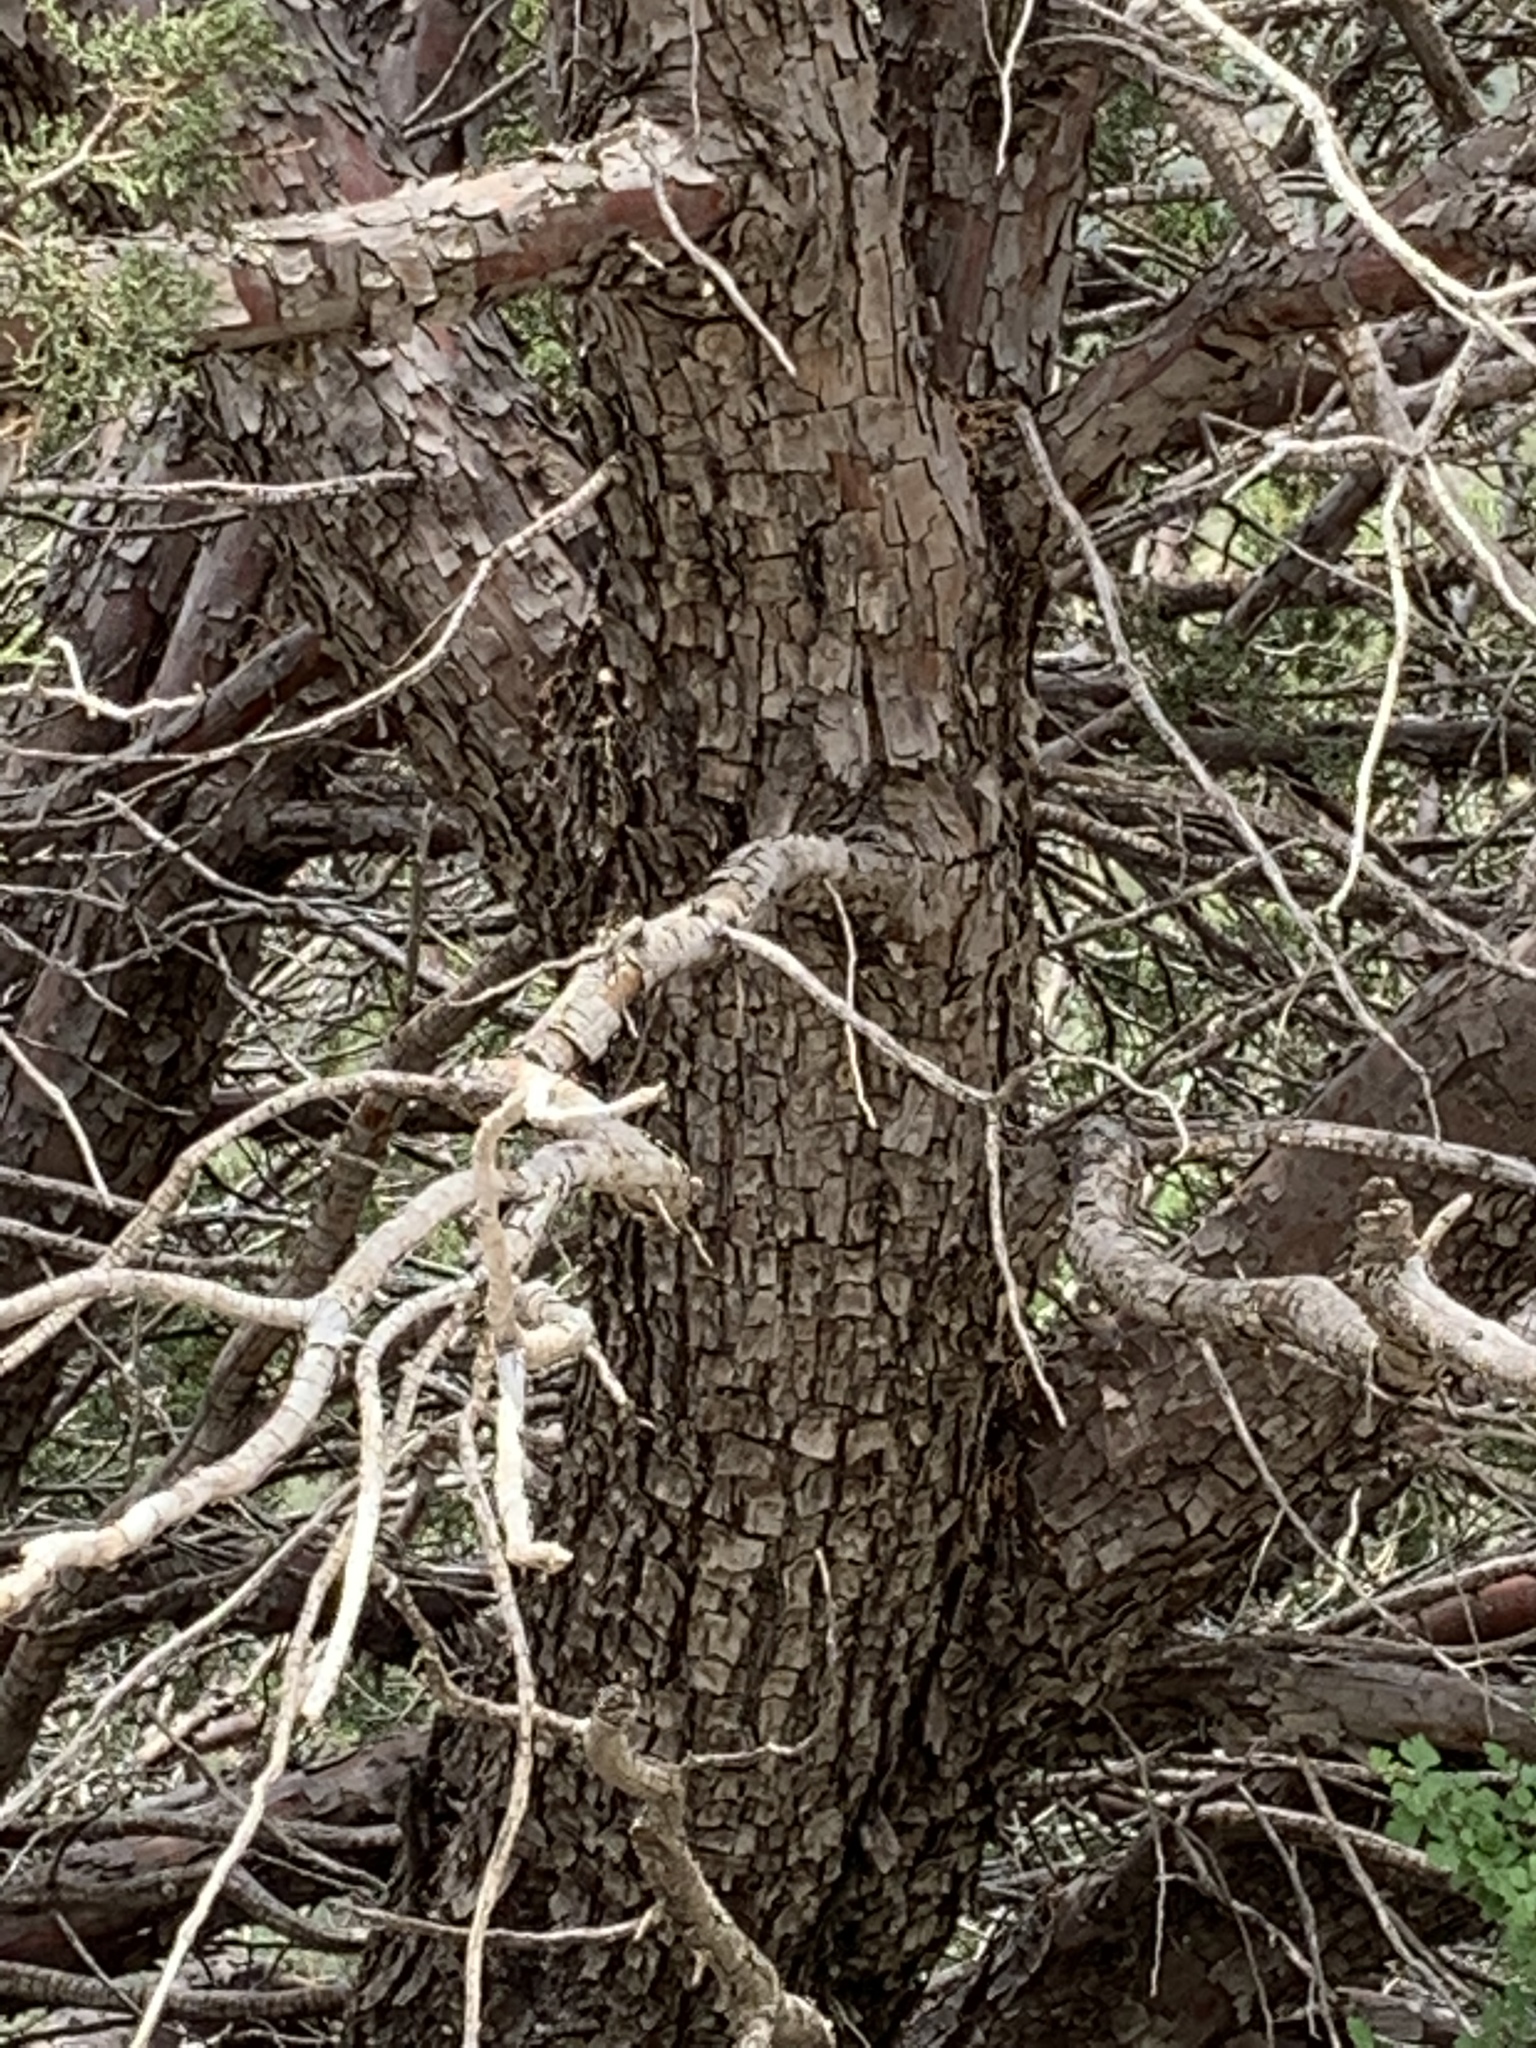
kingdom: Plantae
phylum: Tracheophyta
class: Pinopsida
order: Pinales
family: Cupressaceae
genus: Juniperus
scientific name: Juniperus deppeana
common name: Alligator juniper
